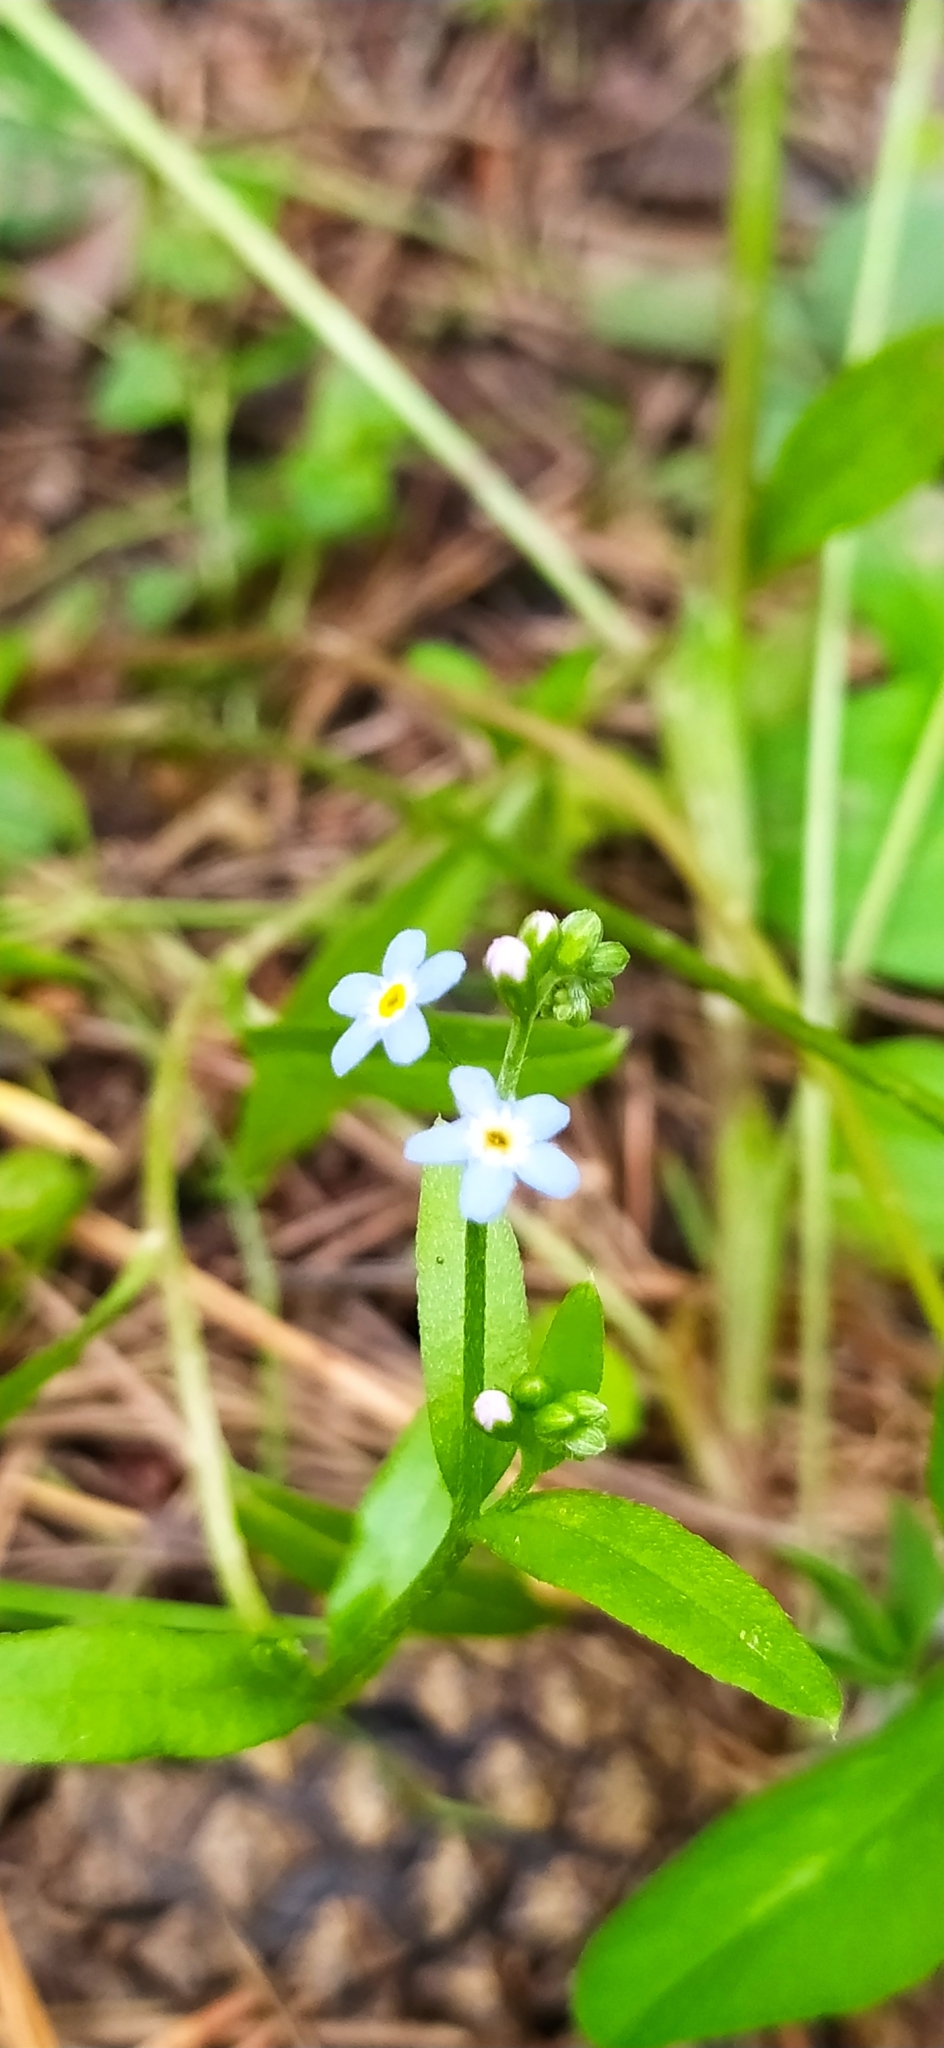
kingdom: Plantae
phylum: Tracheophyta
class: Magnoliopsida
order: Boraginales
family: Boraginaceae
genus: Myosotis
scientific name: Myosotis scorpioides
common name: Water forget-me-not
